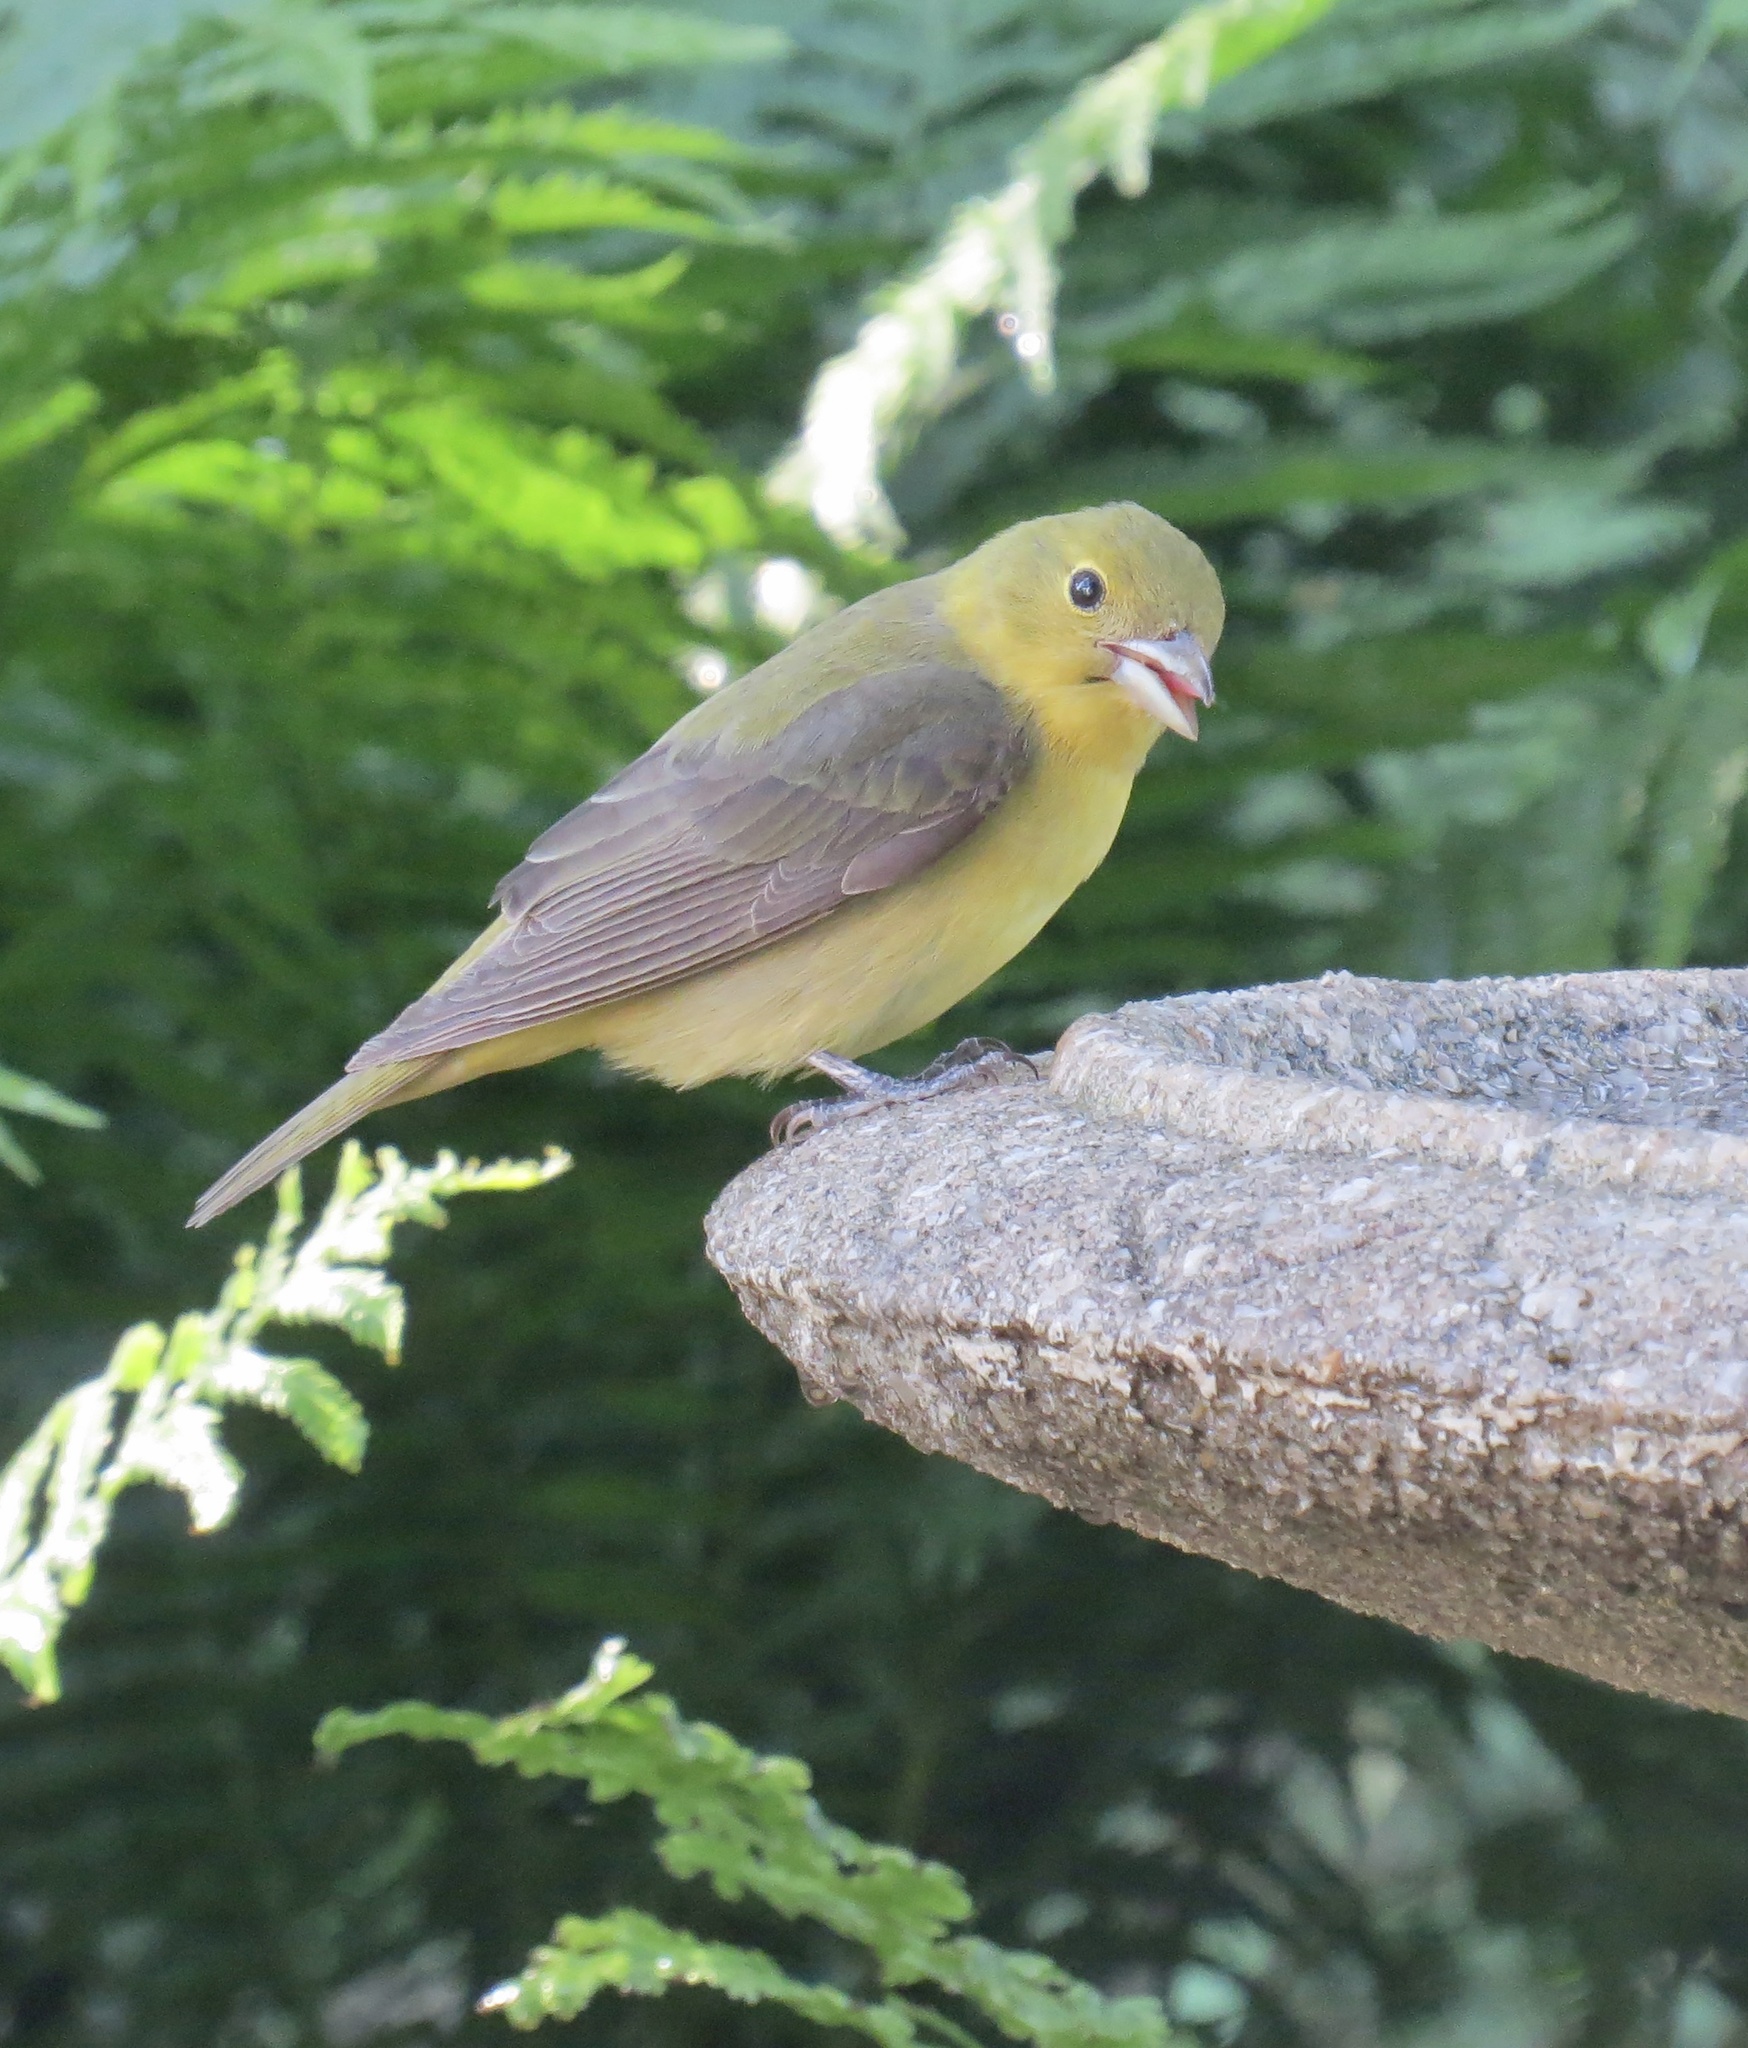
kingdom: Animalia
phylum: Chordata
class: Aves
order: Passeriformes
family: Cardinalidae
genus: Piranga
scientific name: Piranga olivacea
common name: Scarlet tanager
